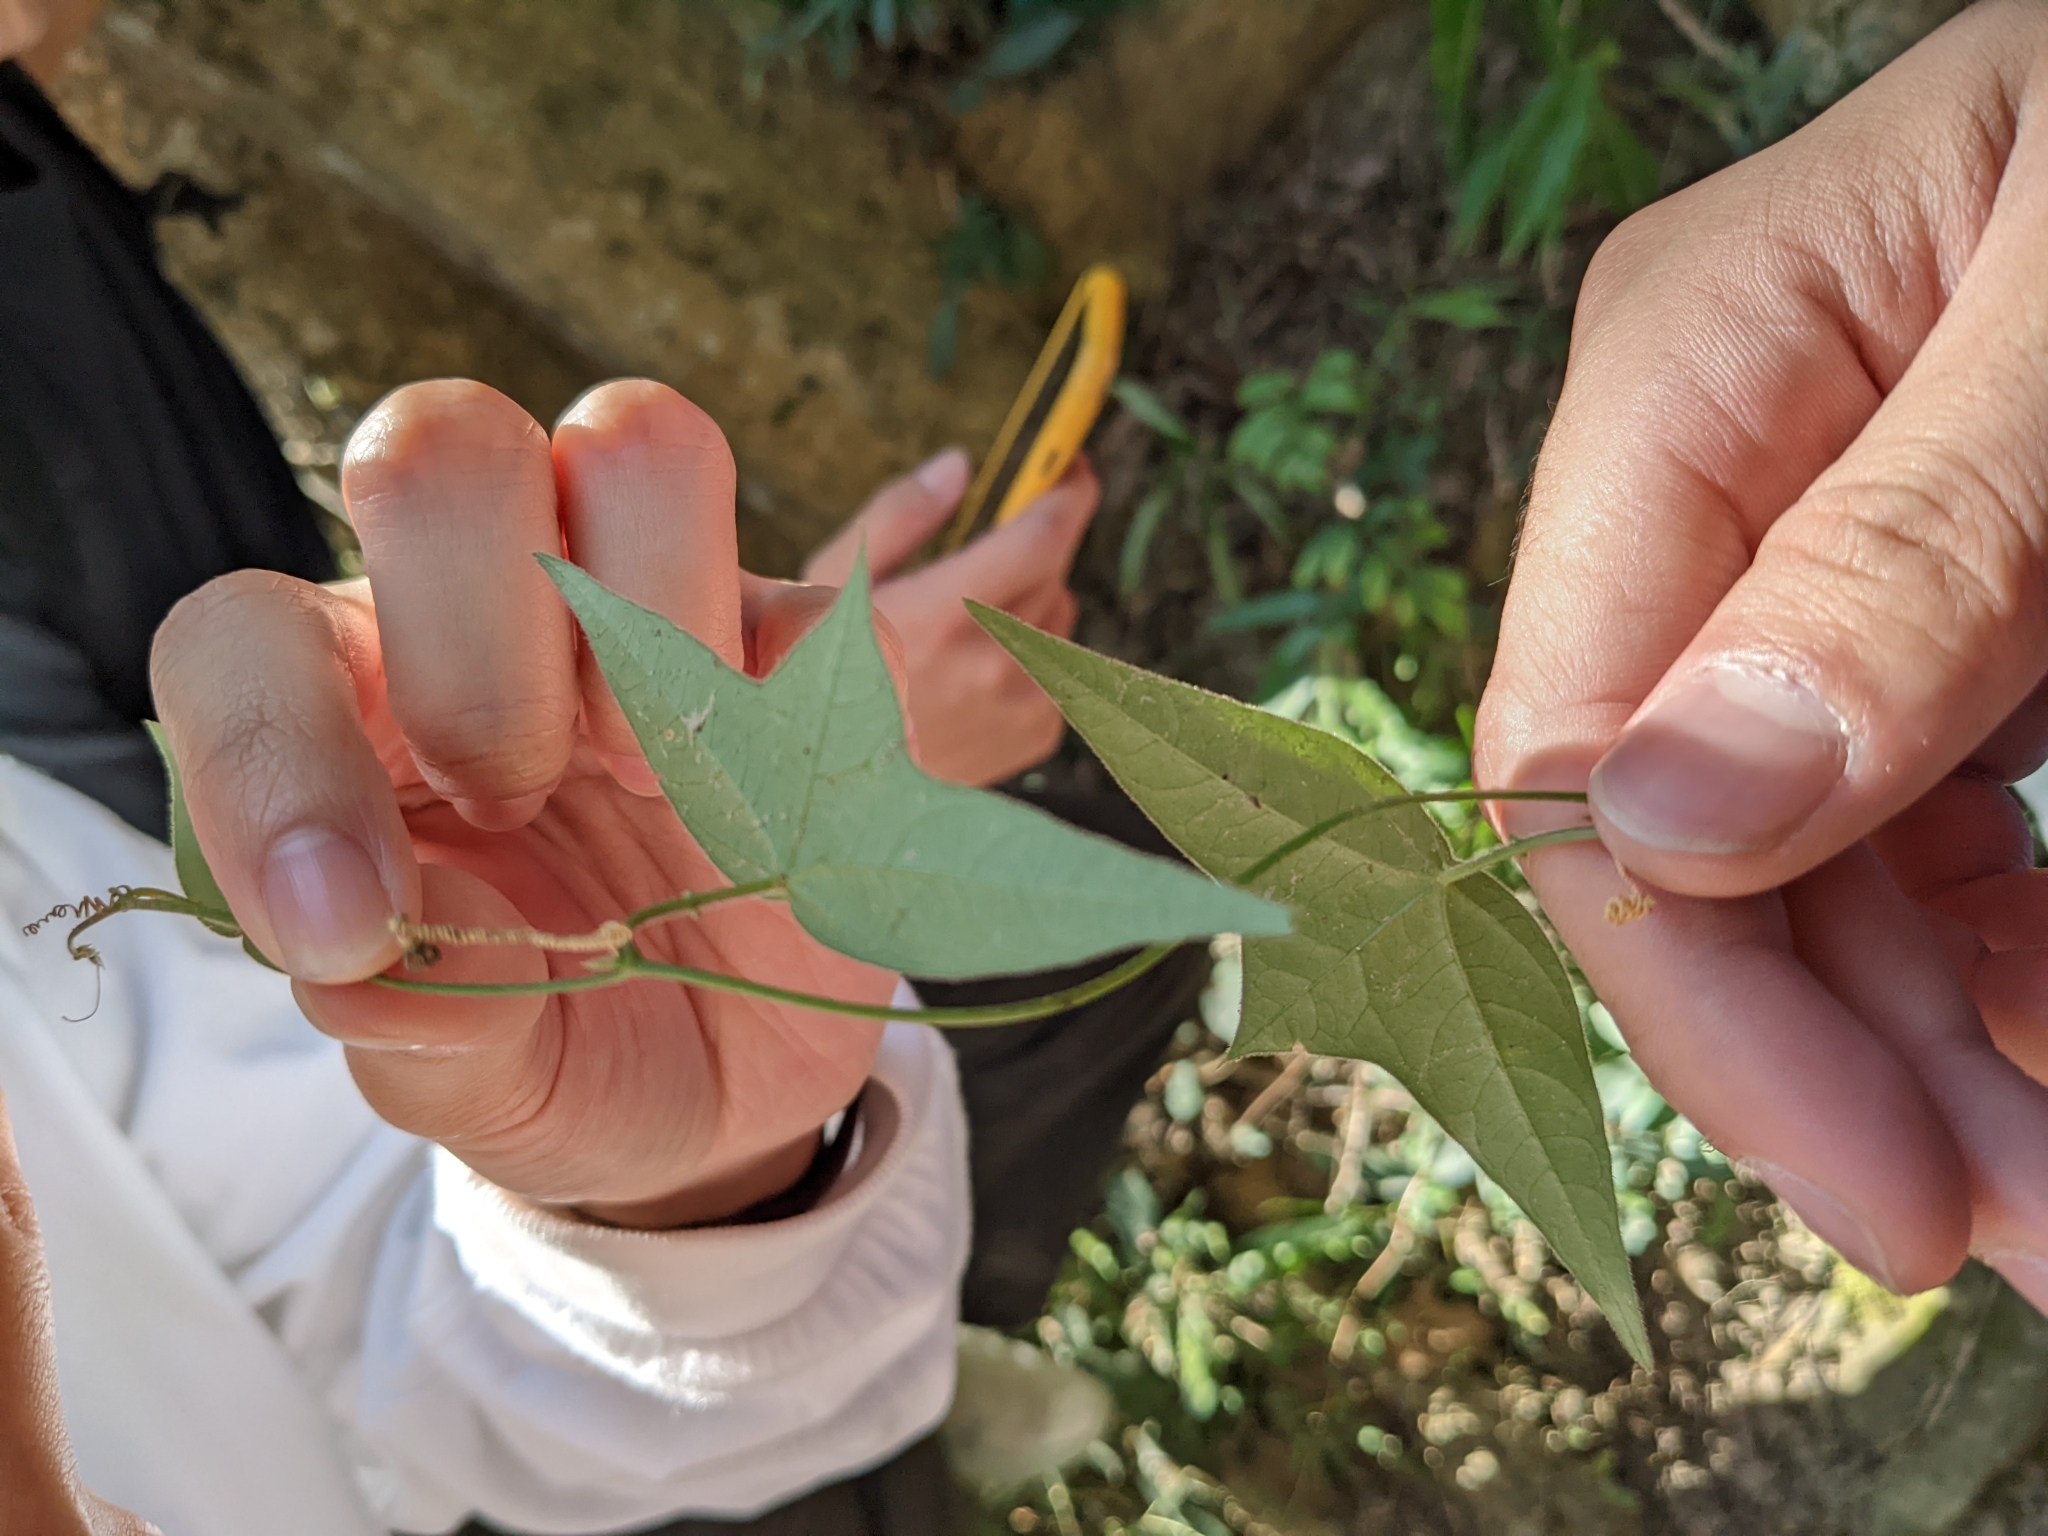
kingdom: Plantae
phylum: Tracheophyta
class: Magnoliopsida
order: Malpighiales
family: Passifloraceae
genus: Passiflora
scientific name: Passiflora suberosa
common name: Wild passionfruit
